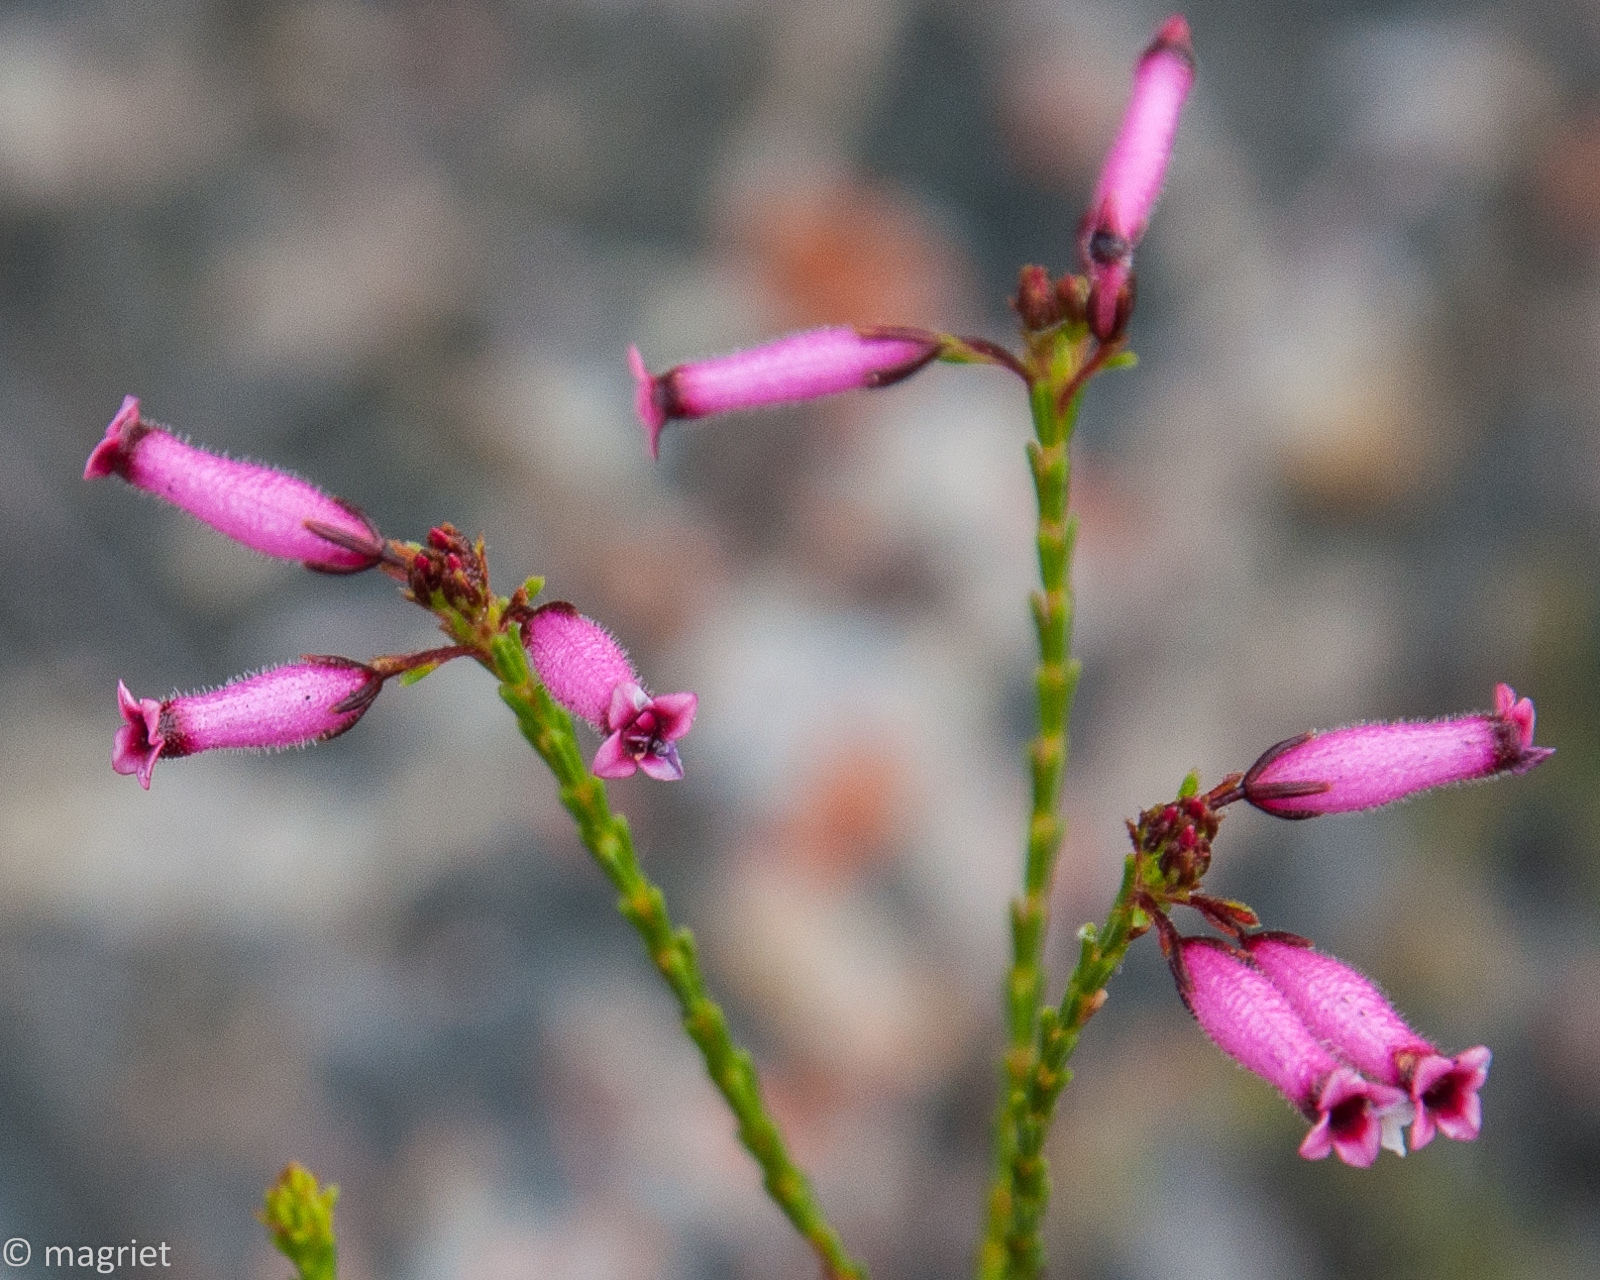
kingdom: Plantae
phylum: Tracheophyta
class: Magnoliopsida
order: Ericales
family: Ericaceae
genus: Erica
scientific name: Erica cristata
